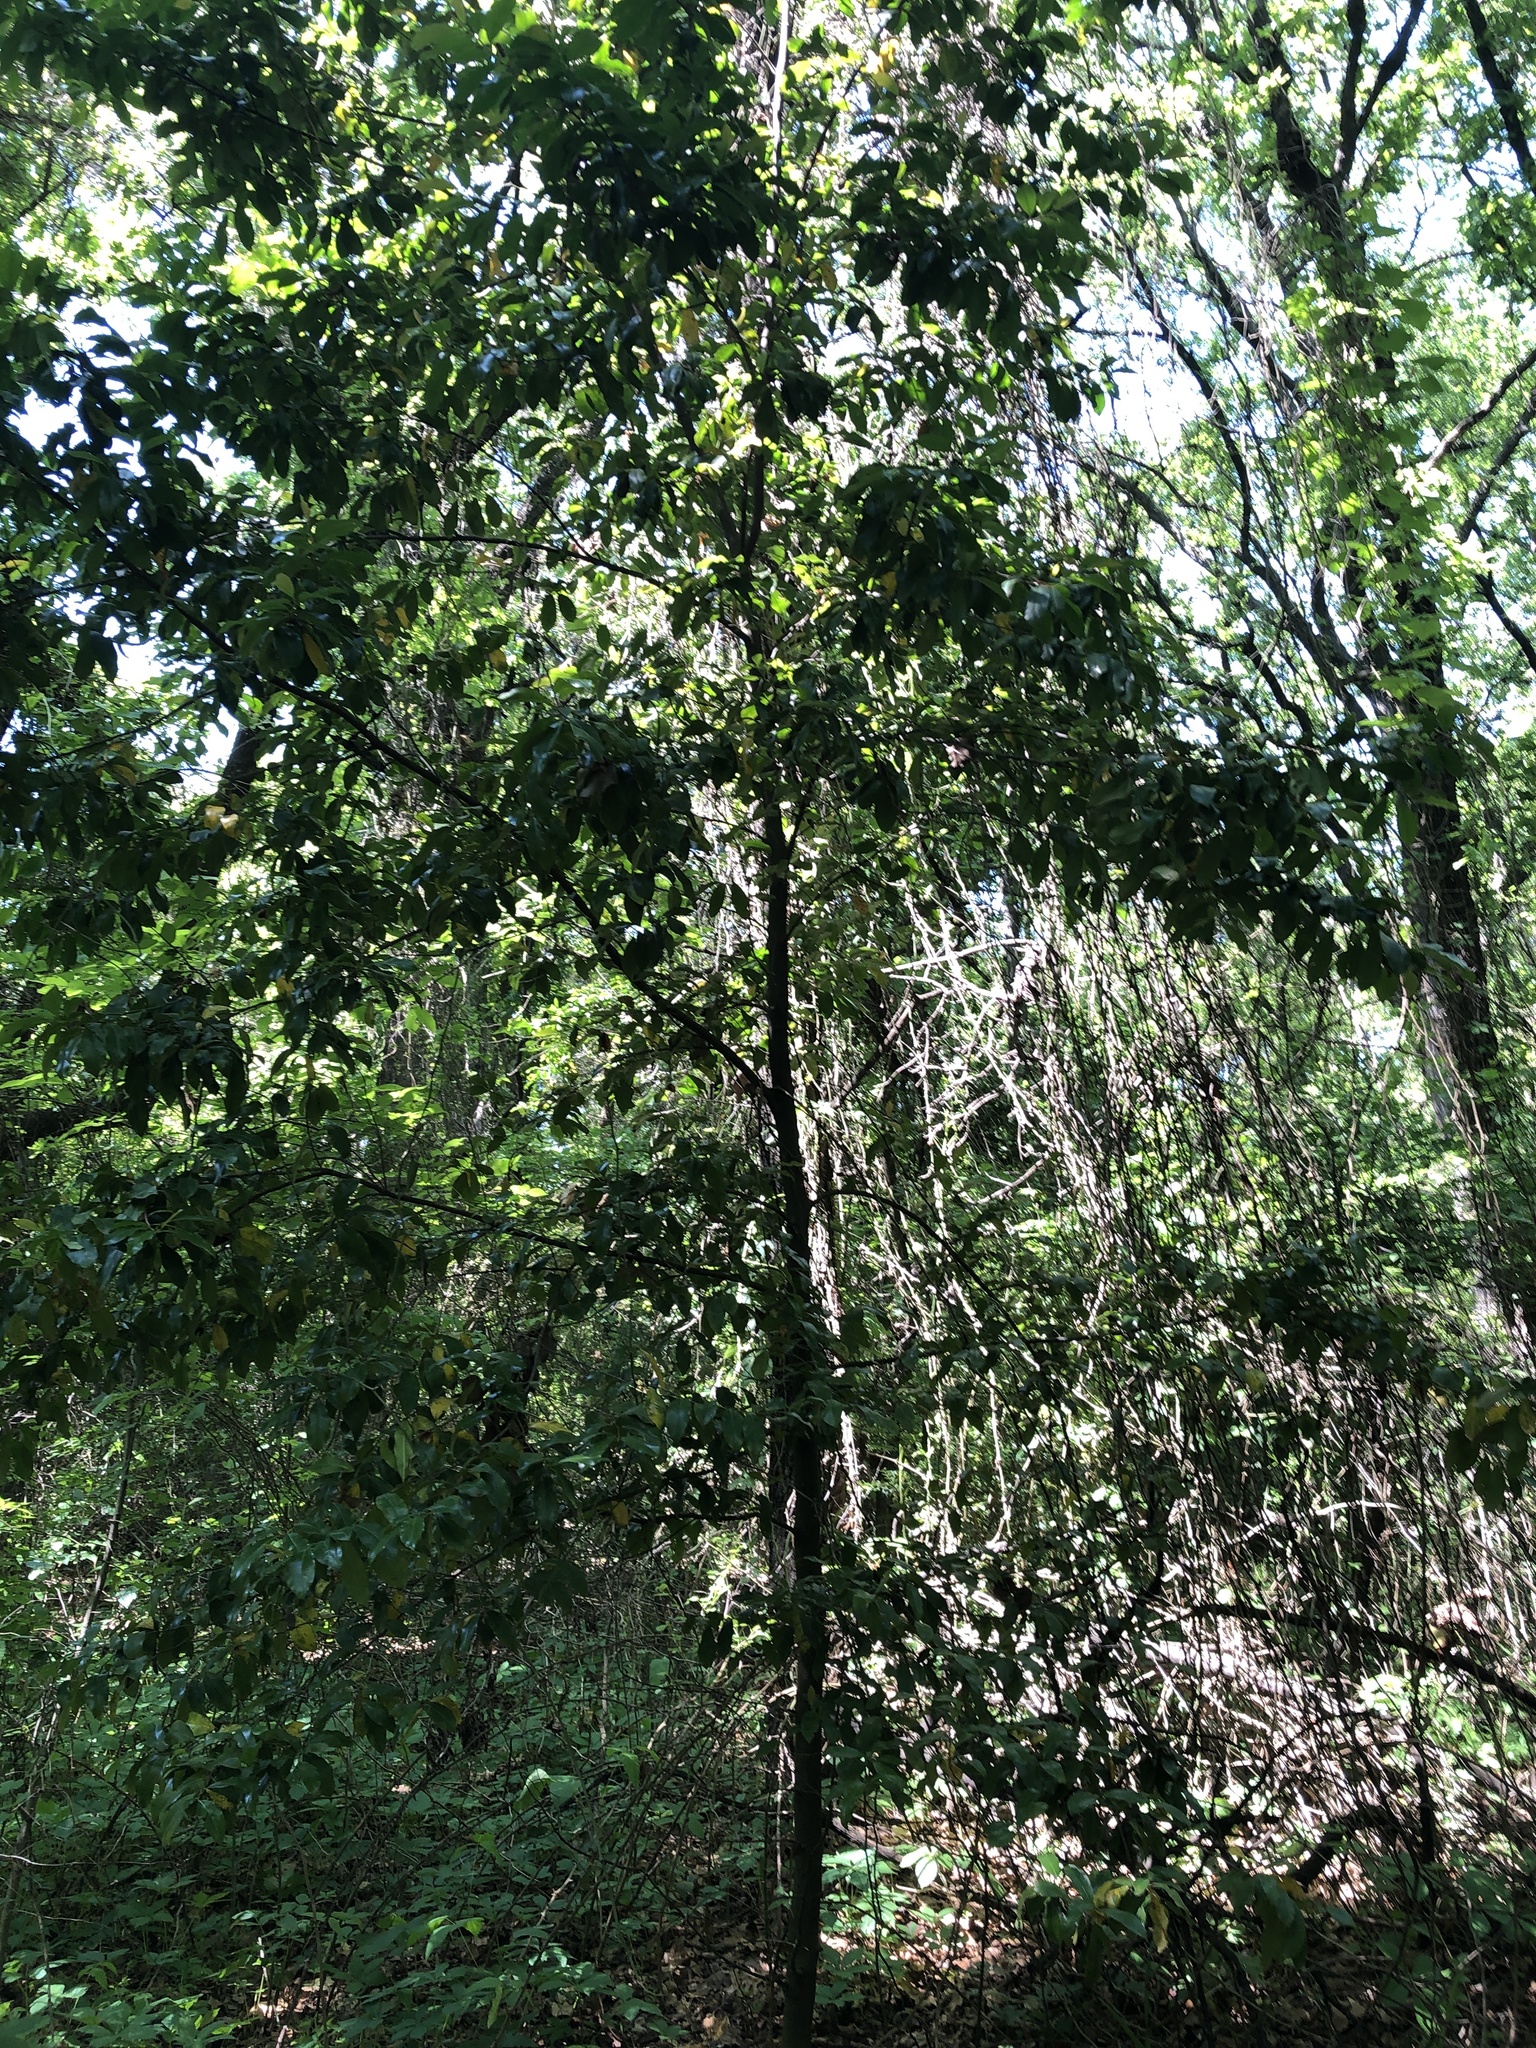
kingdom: Plantae
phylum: Tracheophyta
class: Magnoliopsida
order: Rosales
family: Rosaceae
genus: Prunus
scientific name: Prunus caroliniana
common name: Carolina laurel cherry
